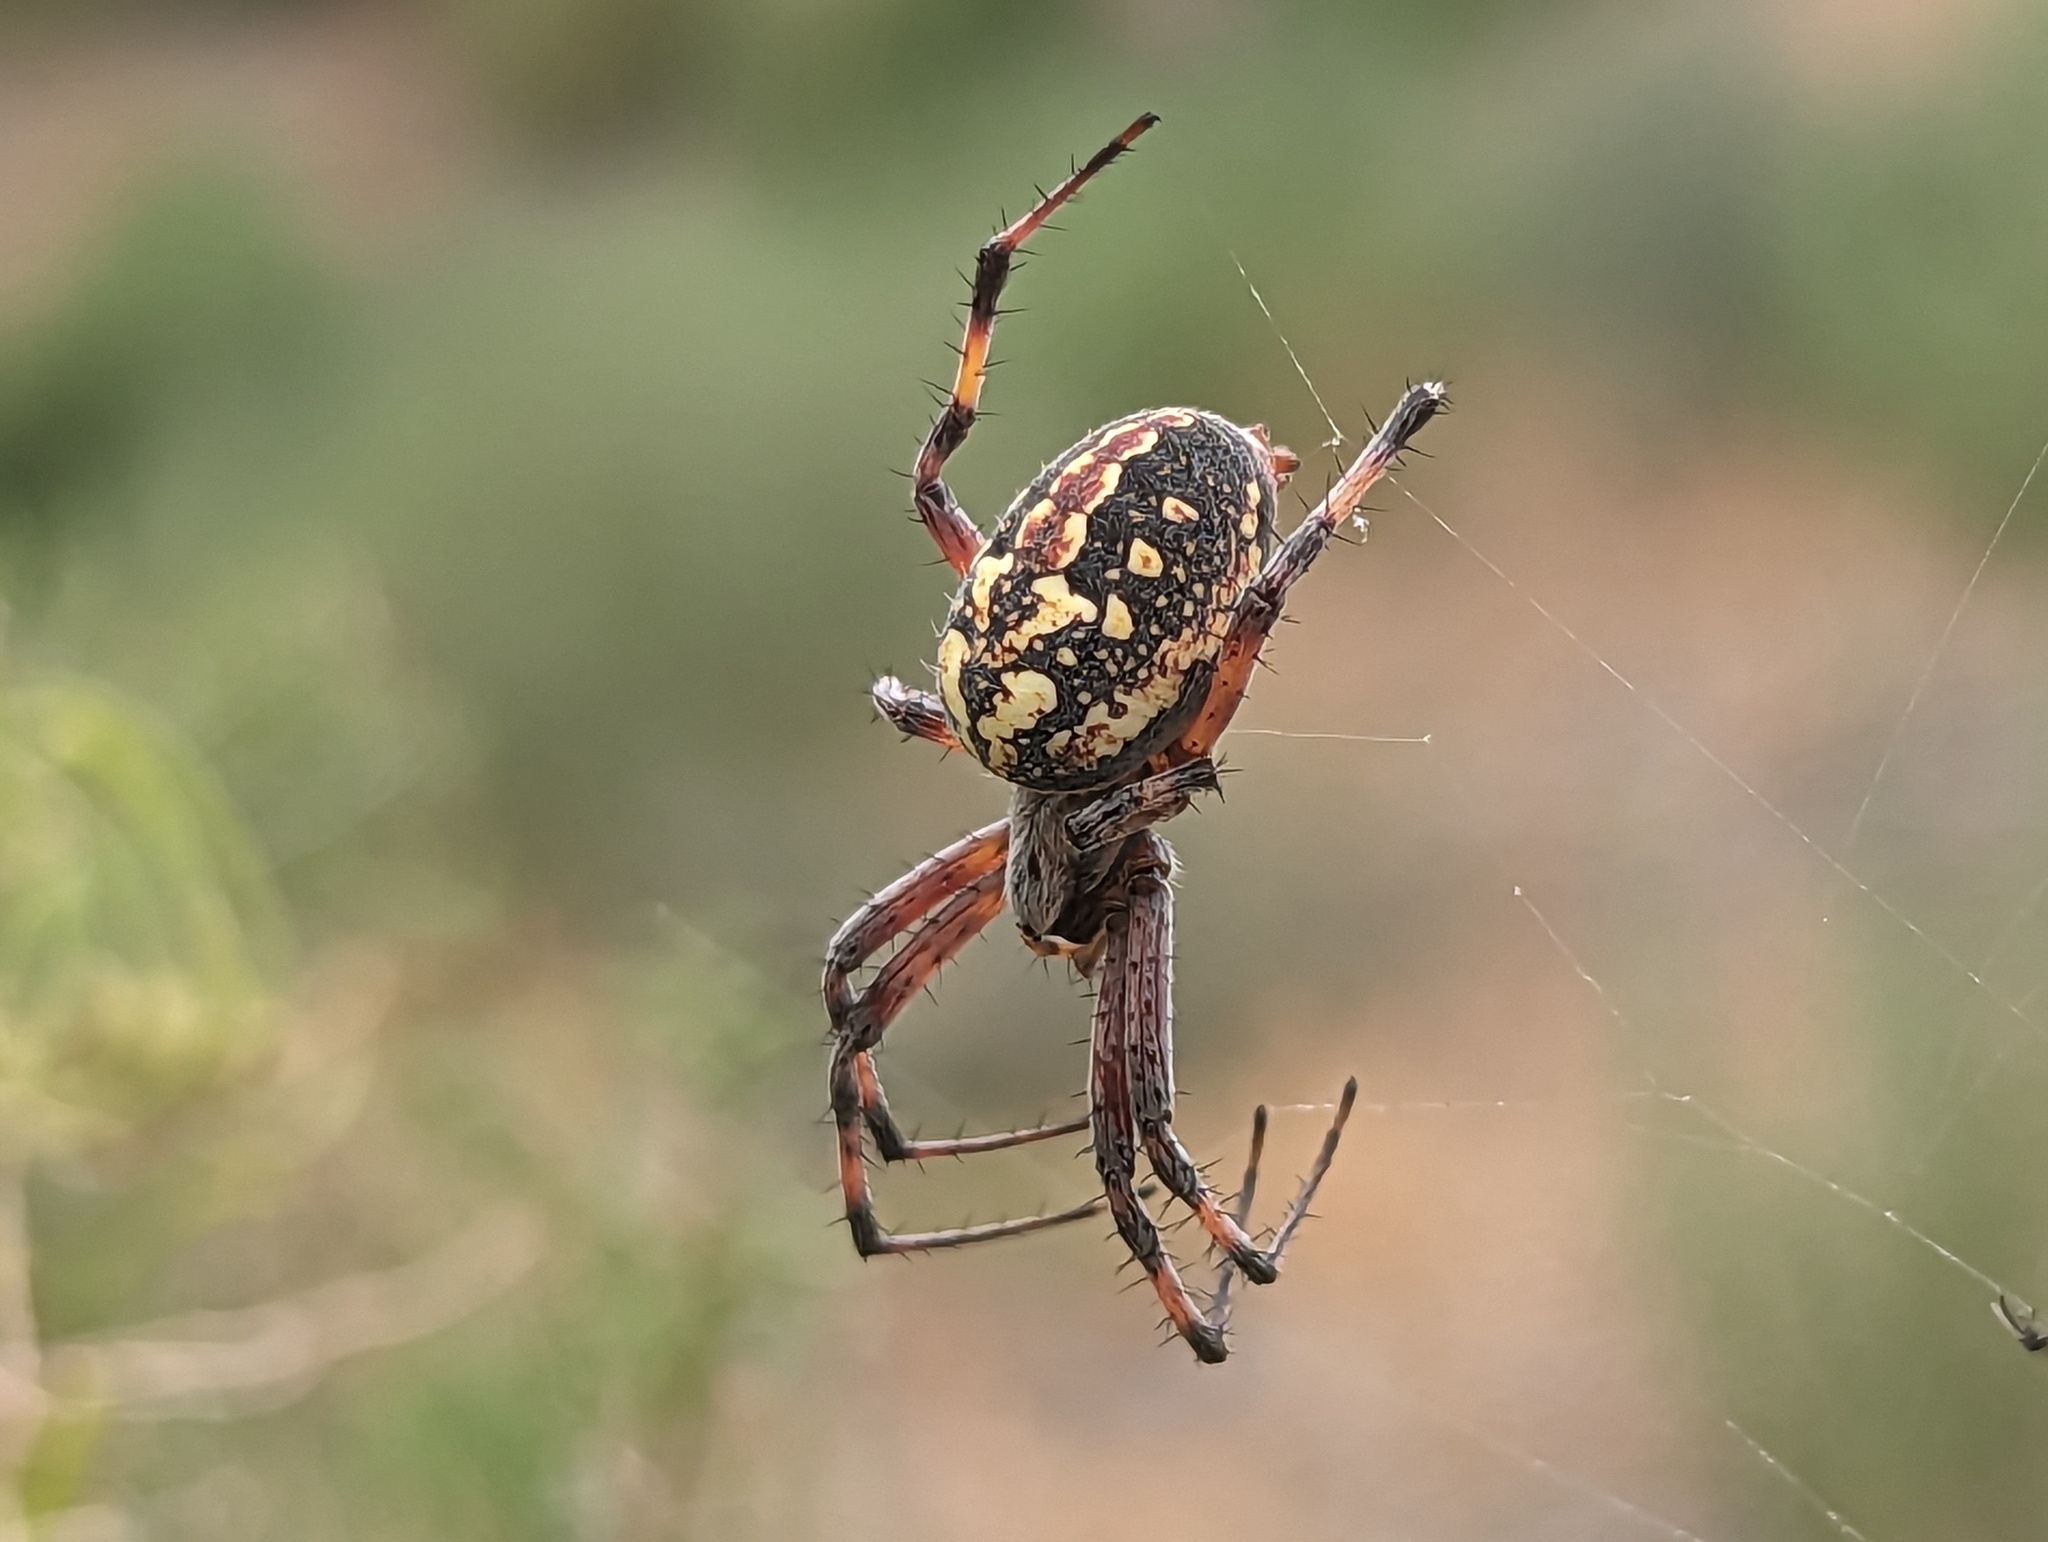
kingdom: Animalia
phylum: Arthropoda
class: Arachnida
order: Araneae
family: Araneidae
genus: Neoscona
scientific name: Neoscona oaxacensis
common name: Orb weavers
